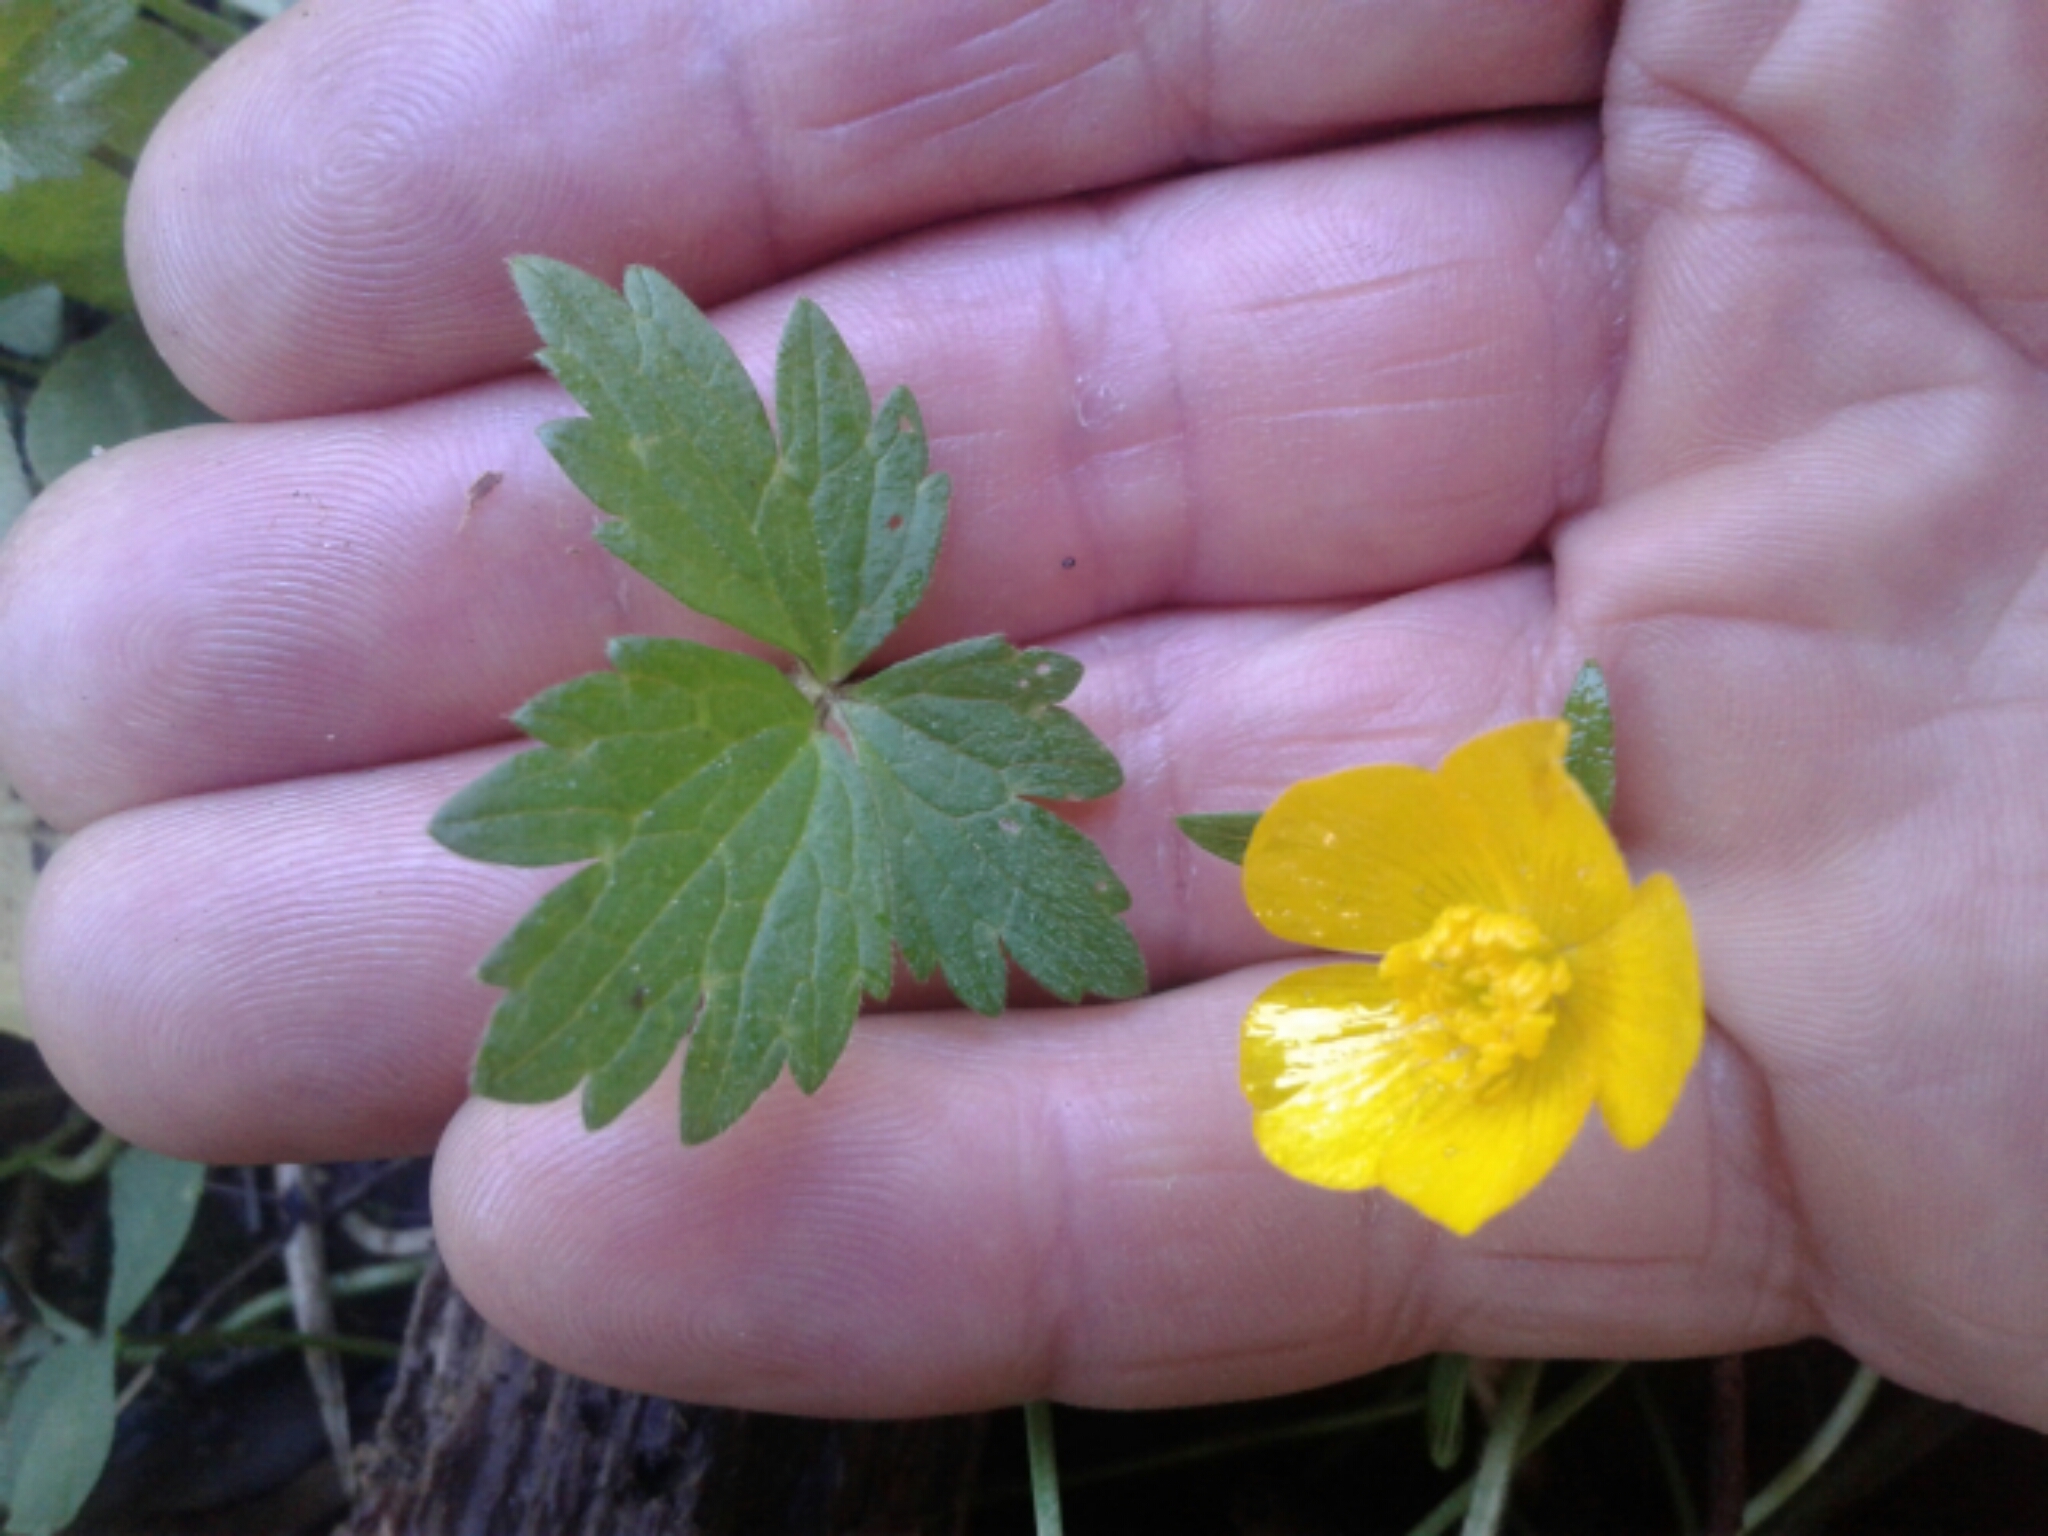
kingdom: Plantae
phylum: Tracheophyta
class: Magnoliopsida
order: Ranunculales
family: Ranunculaceae
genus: Ranunculus
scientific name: Ranunculus repens
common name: Creeping buttercup
